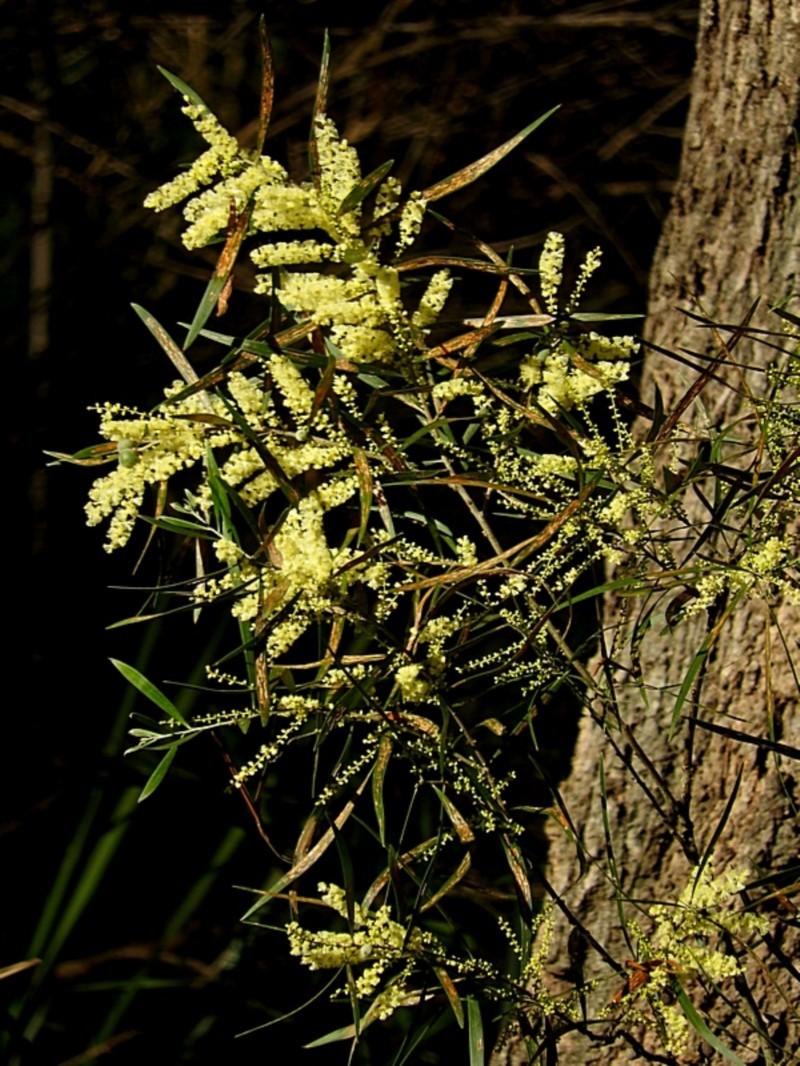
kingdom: Plantae
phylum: Tracheophyta
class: Magnoliopsida
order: Fabales
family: Fabaceae
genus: Acacia
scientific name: Acacia floribunda
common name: Gossamer wattle
